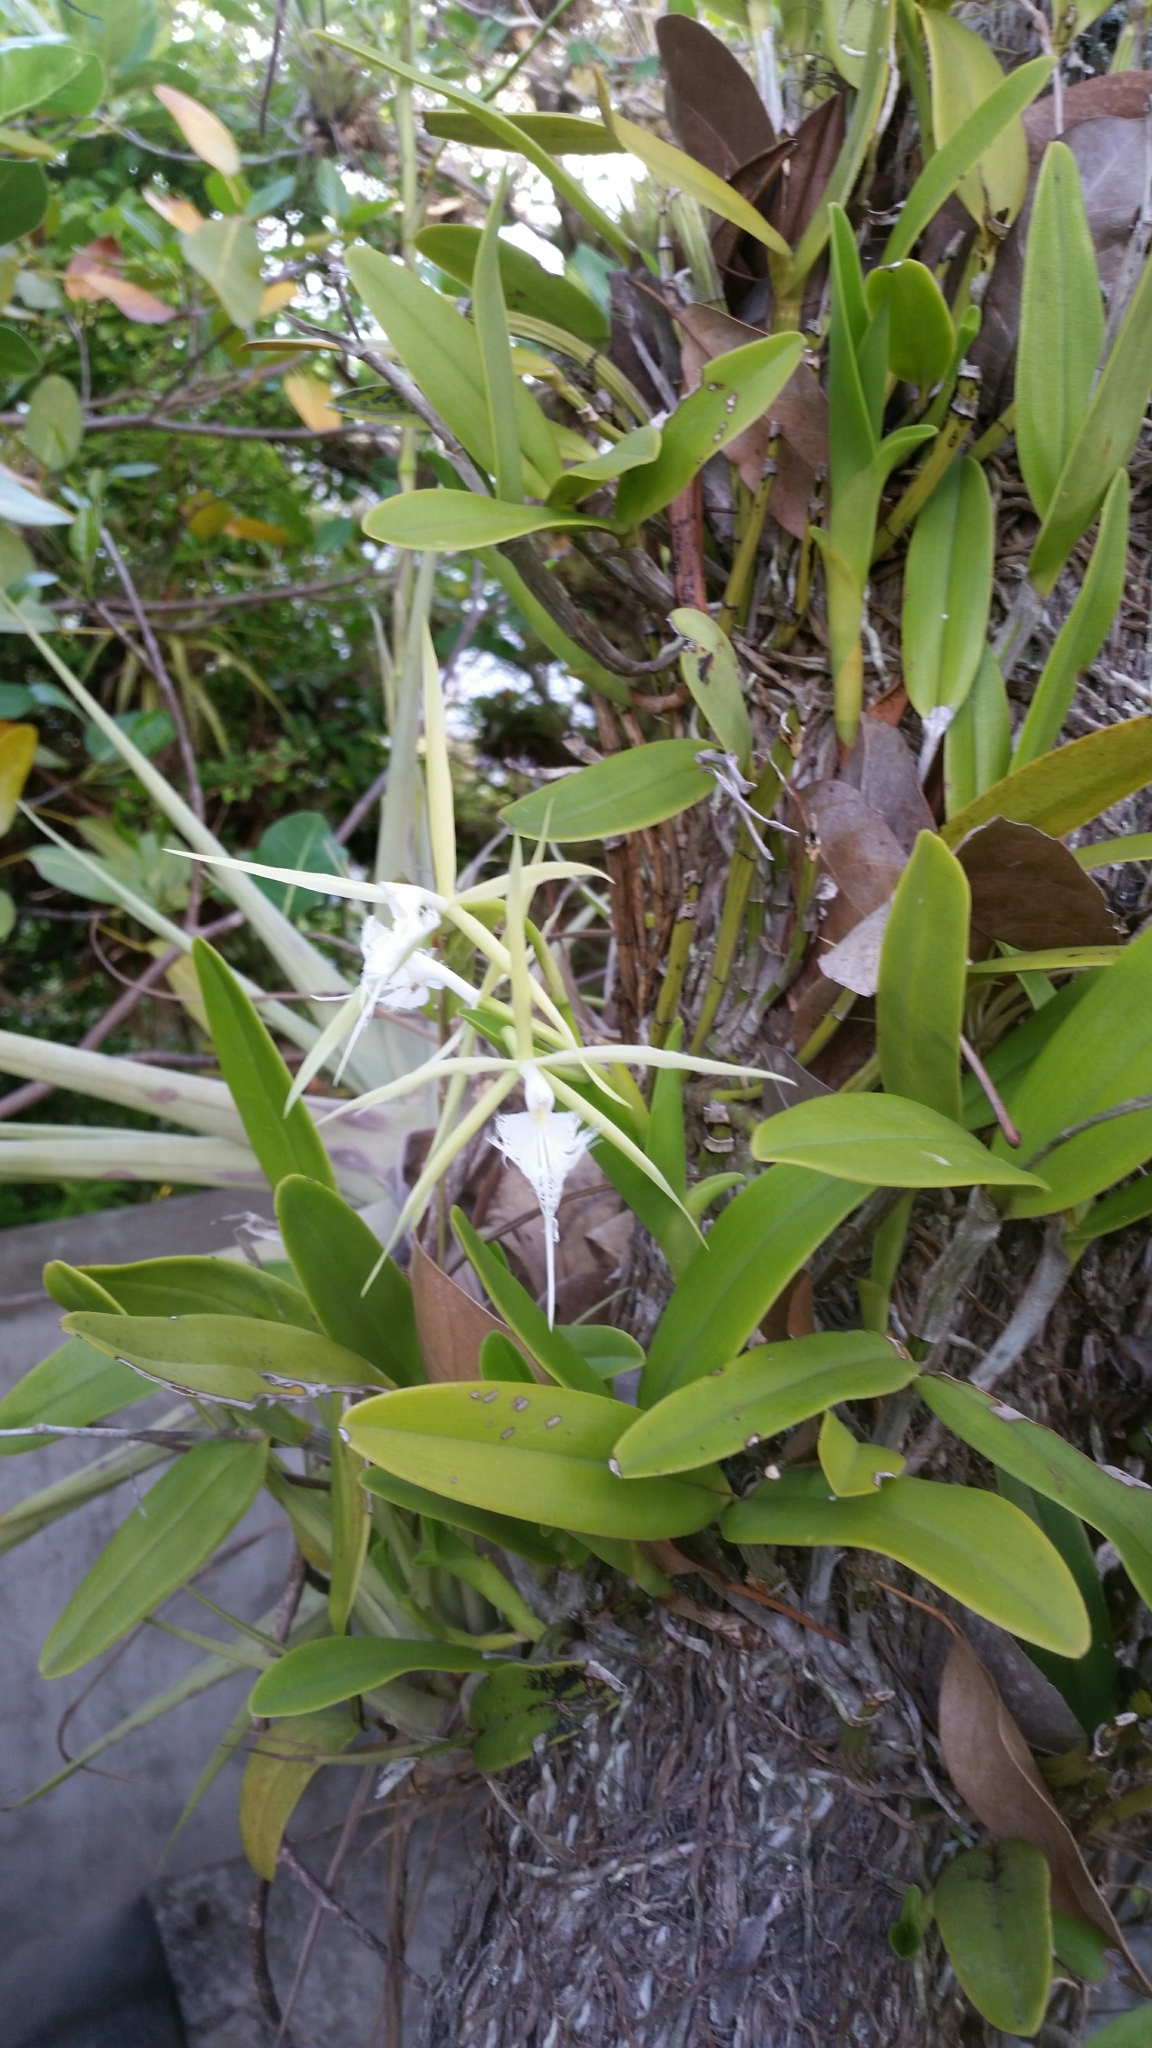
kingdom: Plantae
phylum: Tracheophyta
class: Liliopsida
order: Asparagales
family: Orchidaceae
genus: Epidendrum
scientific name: Epidendrum ciliare
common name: Eyelash orchid
